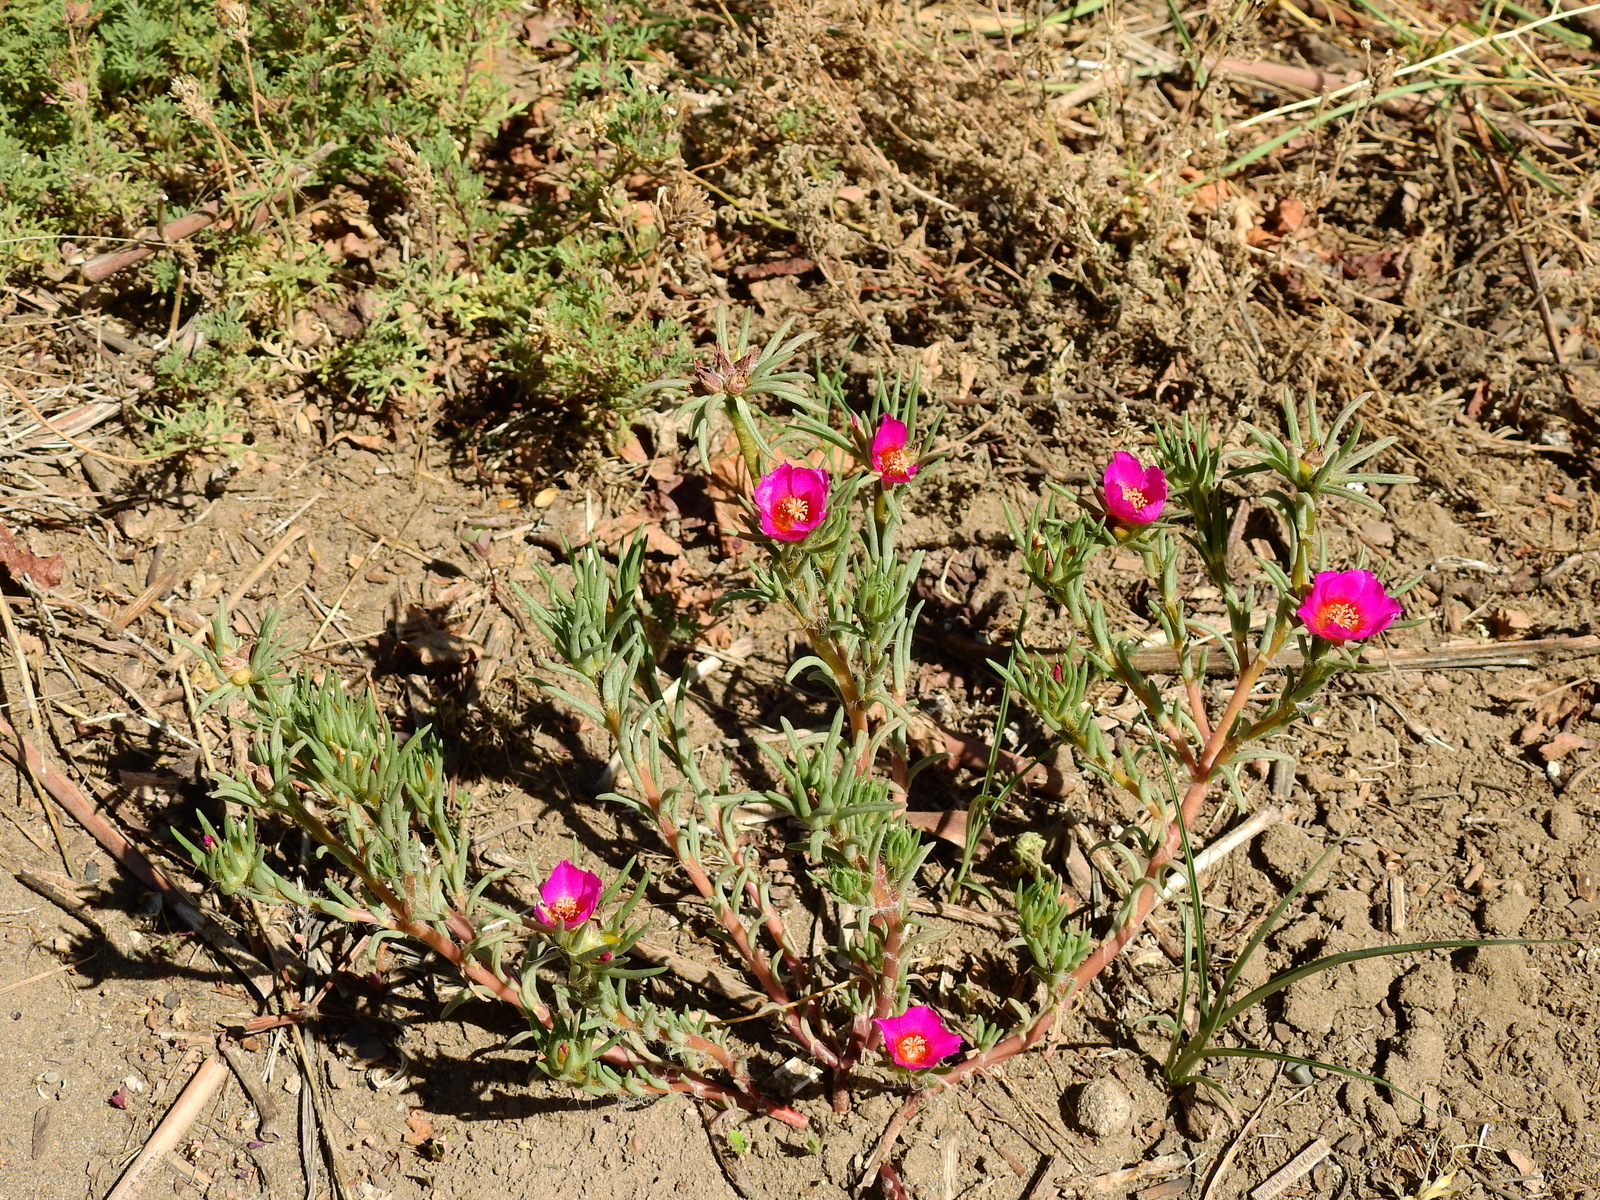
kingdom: Plantae
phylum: Tracheophyta
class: Magnoliopsida
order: Caryophyllales
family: Portulacaceae
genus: Portulaca
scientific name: Portulaca confertifolia
